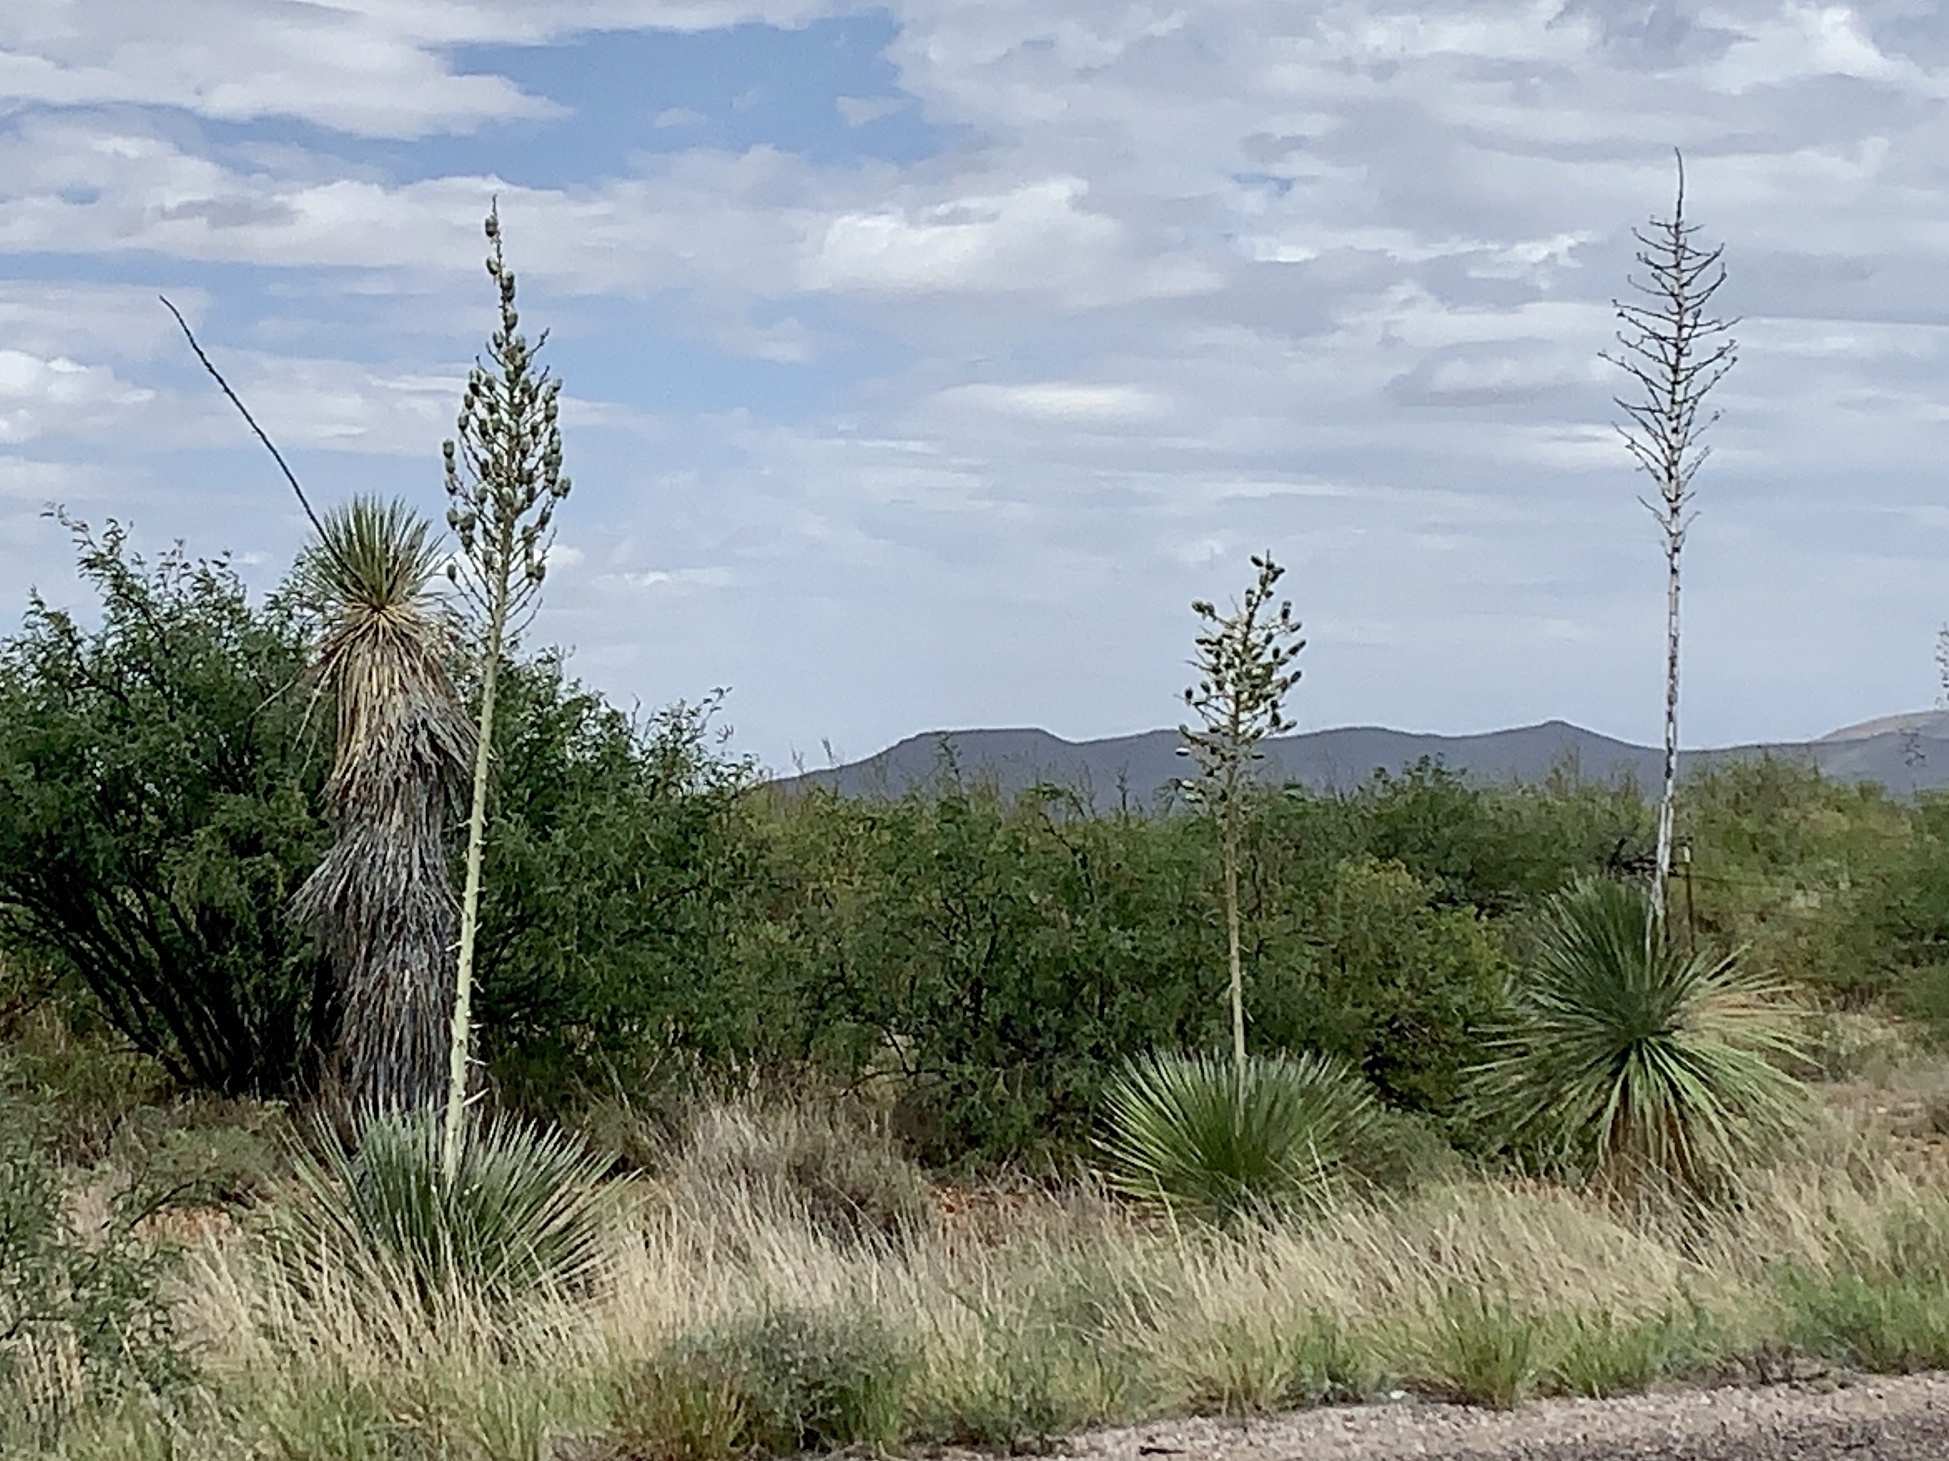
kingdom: Plantae
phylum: Tracheophyta
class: Liliopsida
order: Asparagales
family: Asparagaceae
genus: Yucca
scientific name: Yucca elata
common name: Palmella
